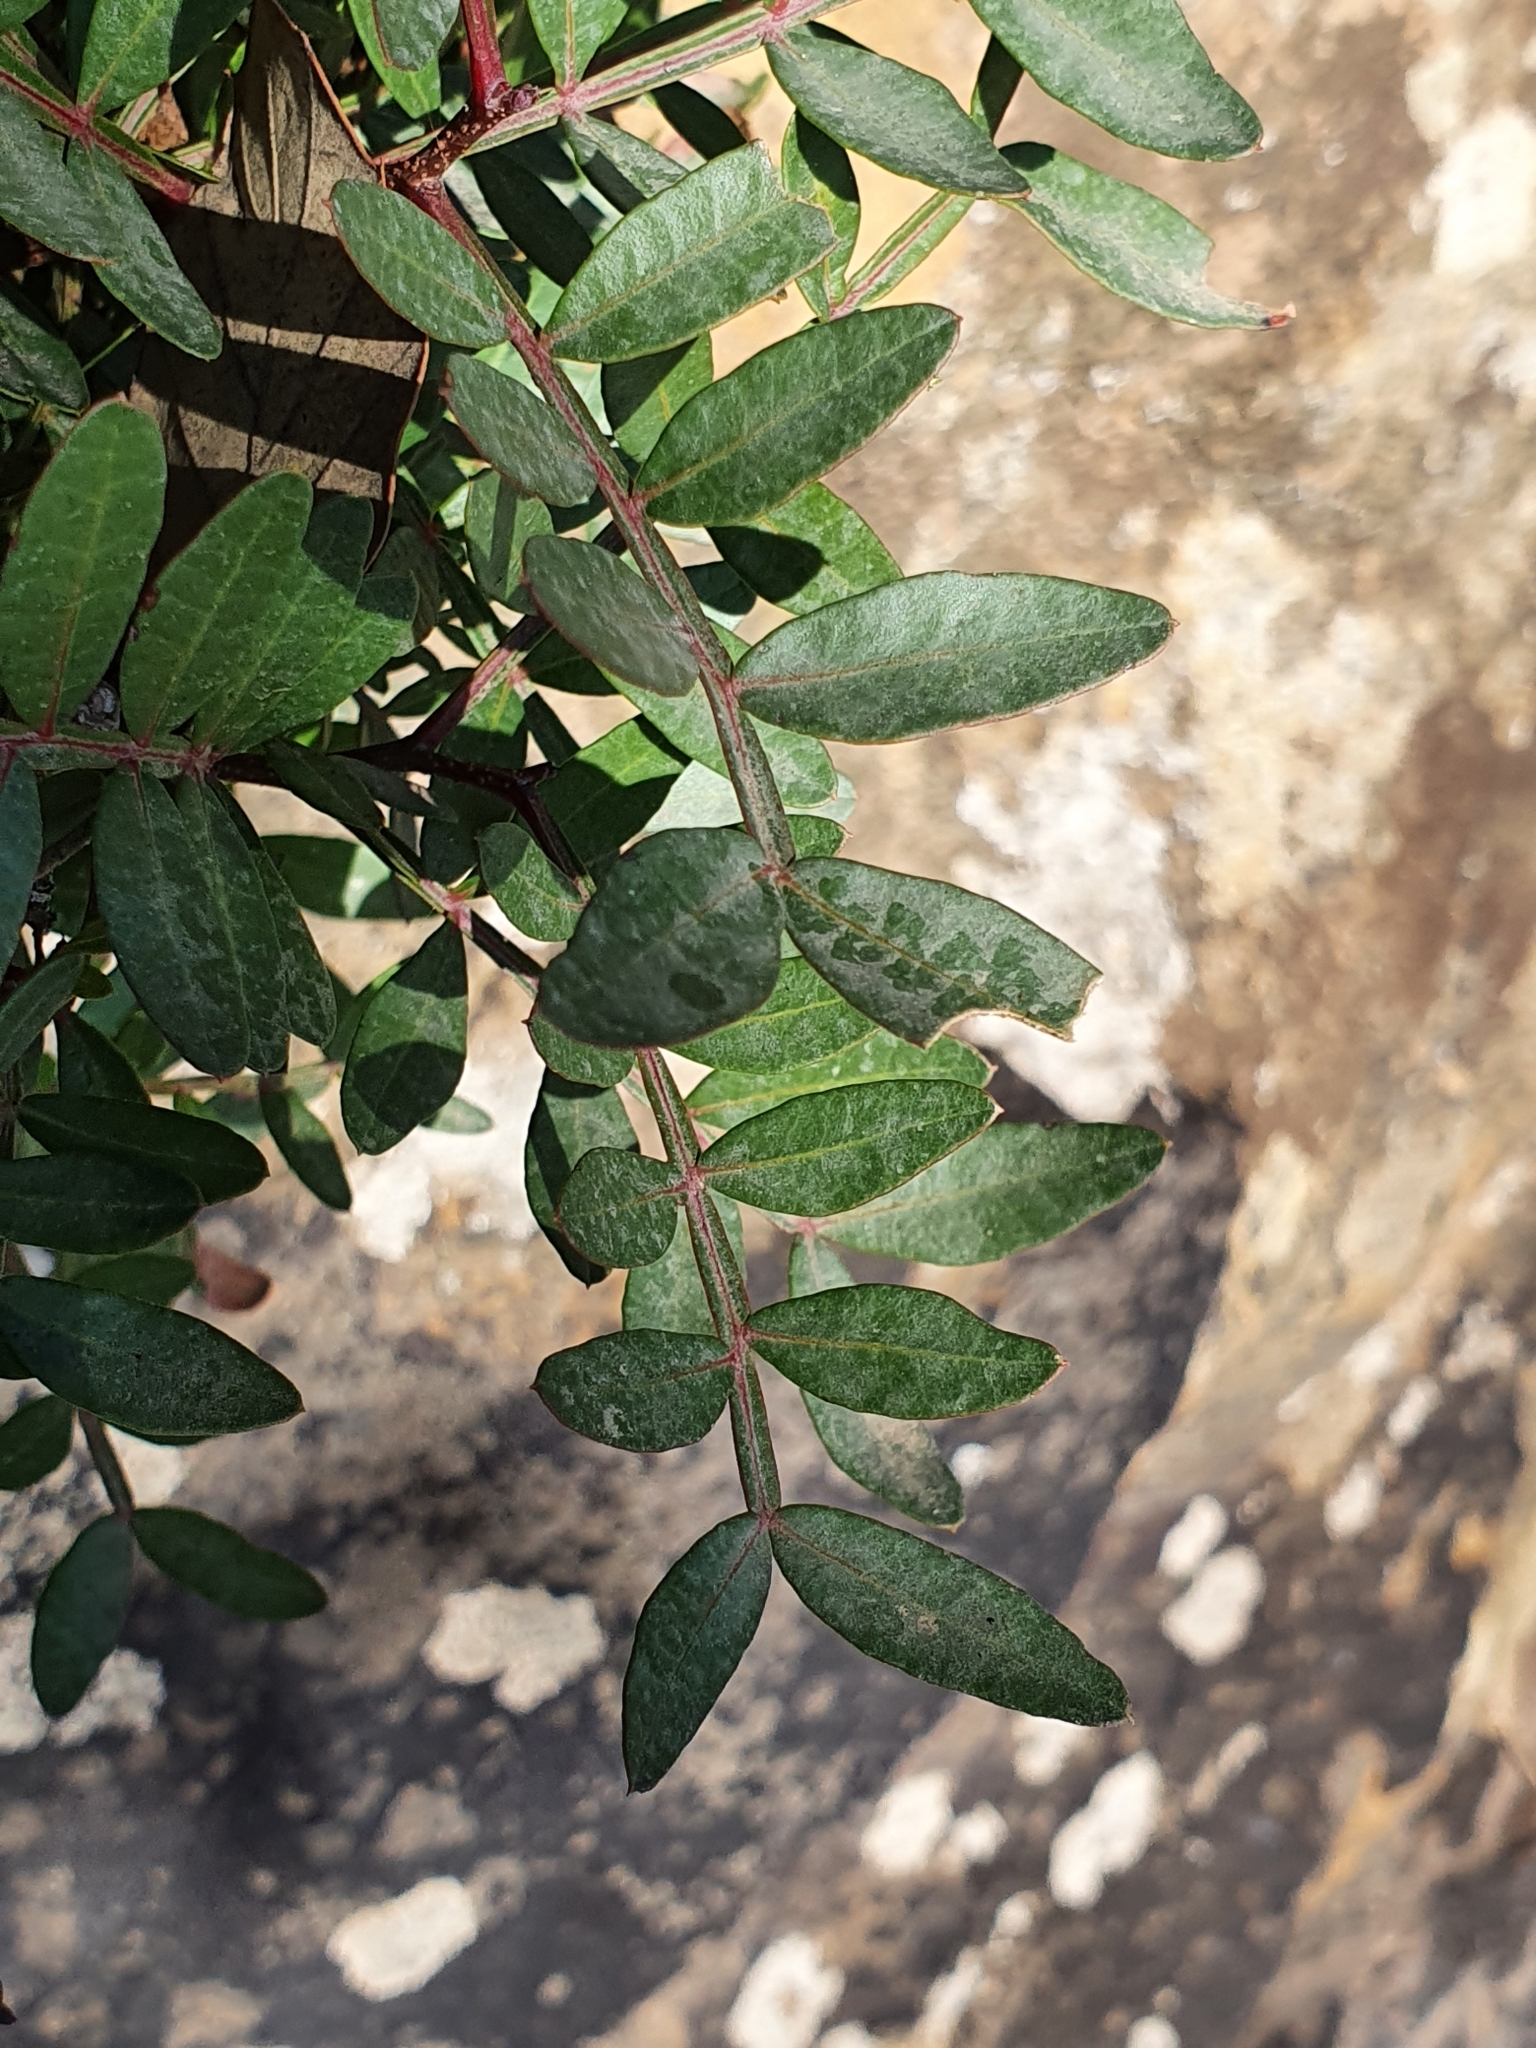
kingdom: Plantae
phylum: Tracheophyta
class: Magnoliopsida
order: Sapindales
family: Anacardiaceae
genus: Pistacia
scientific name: Pistacia lentiscus
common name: Lentisk
